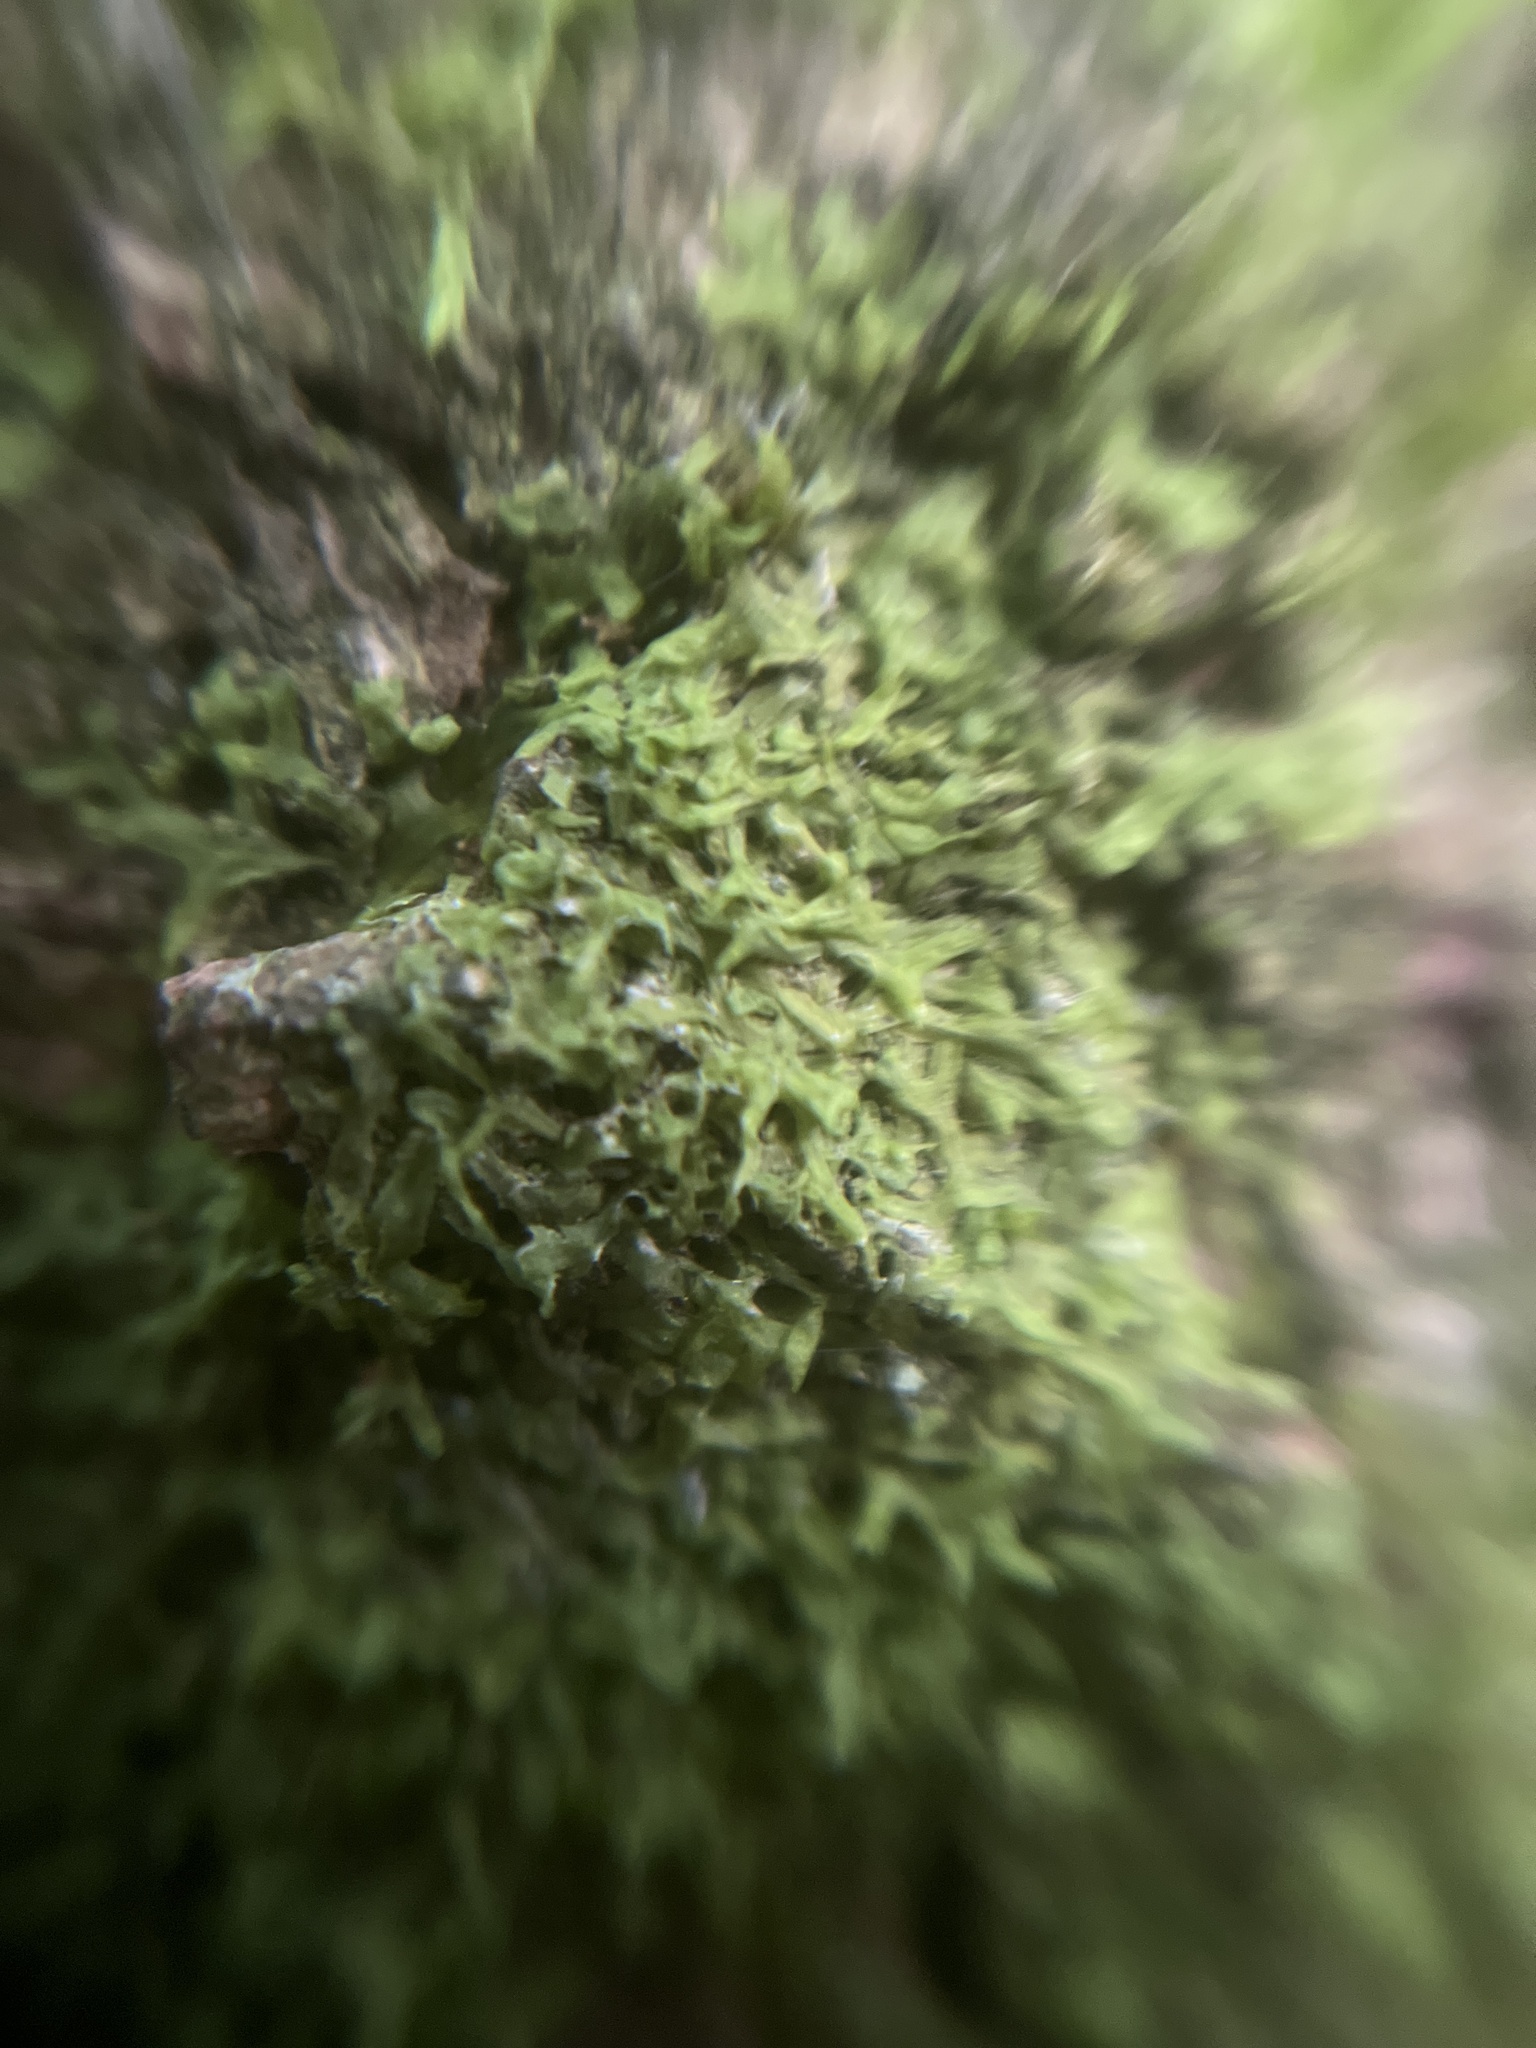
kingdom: Plantae
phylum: Marchantiophyta
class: Jungermanniopsida
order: Metzgeriales
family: Metzgeriaceae
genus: Metzgeria
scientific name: Metzgeria violacea
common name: Blueish veilwort
